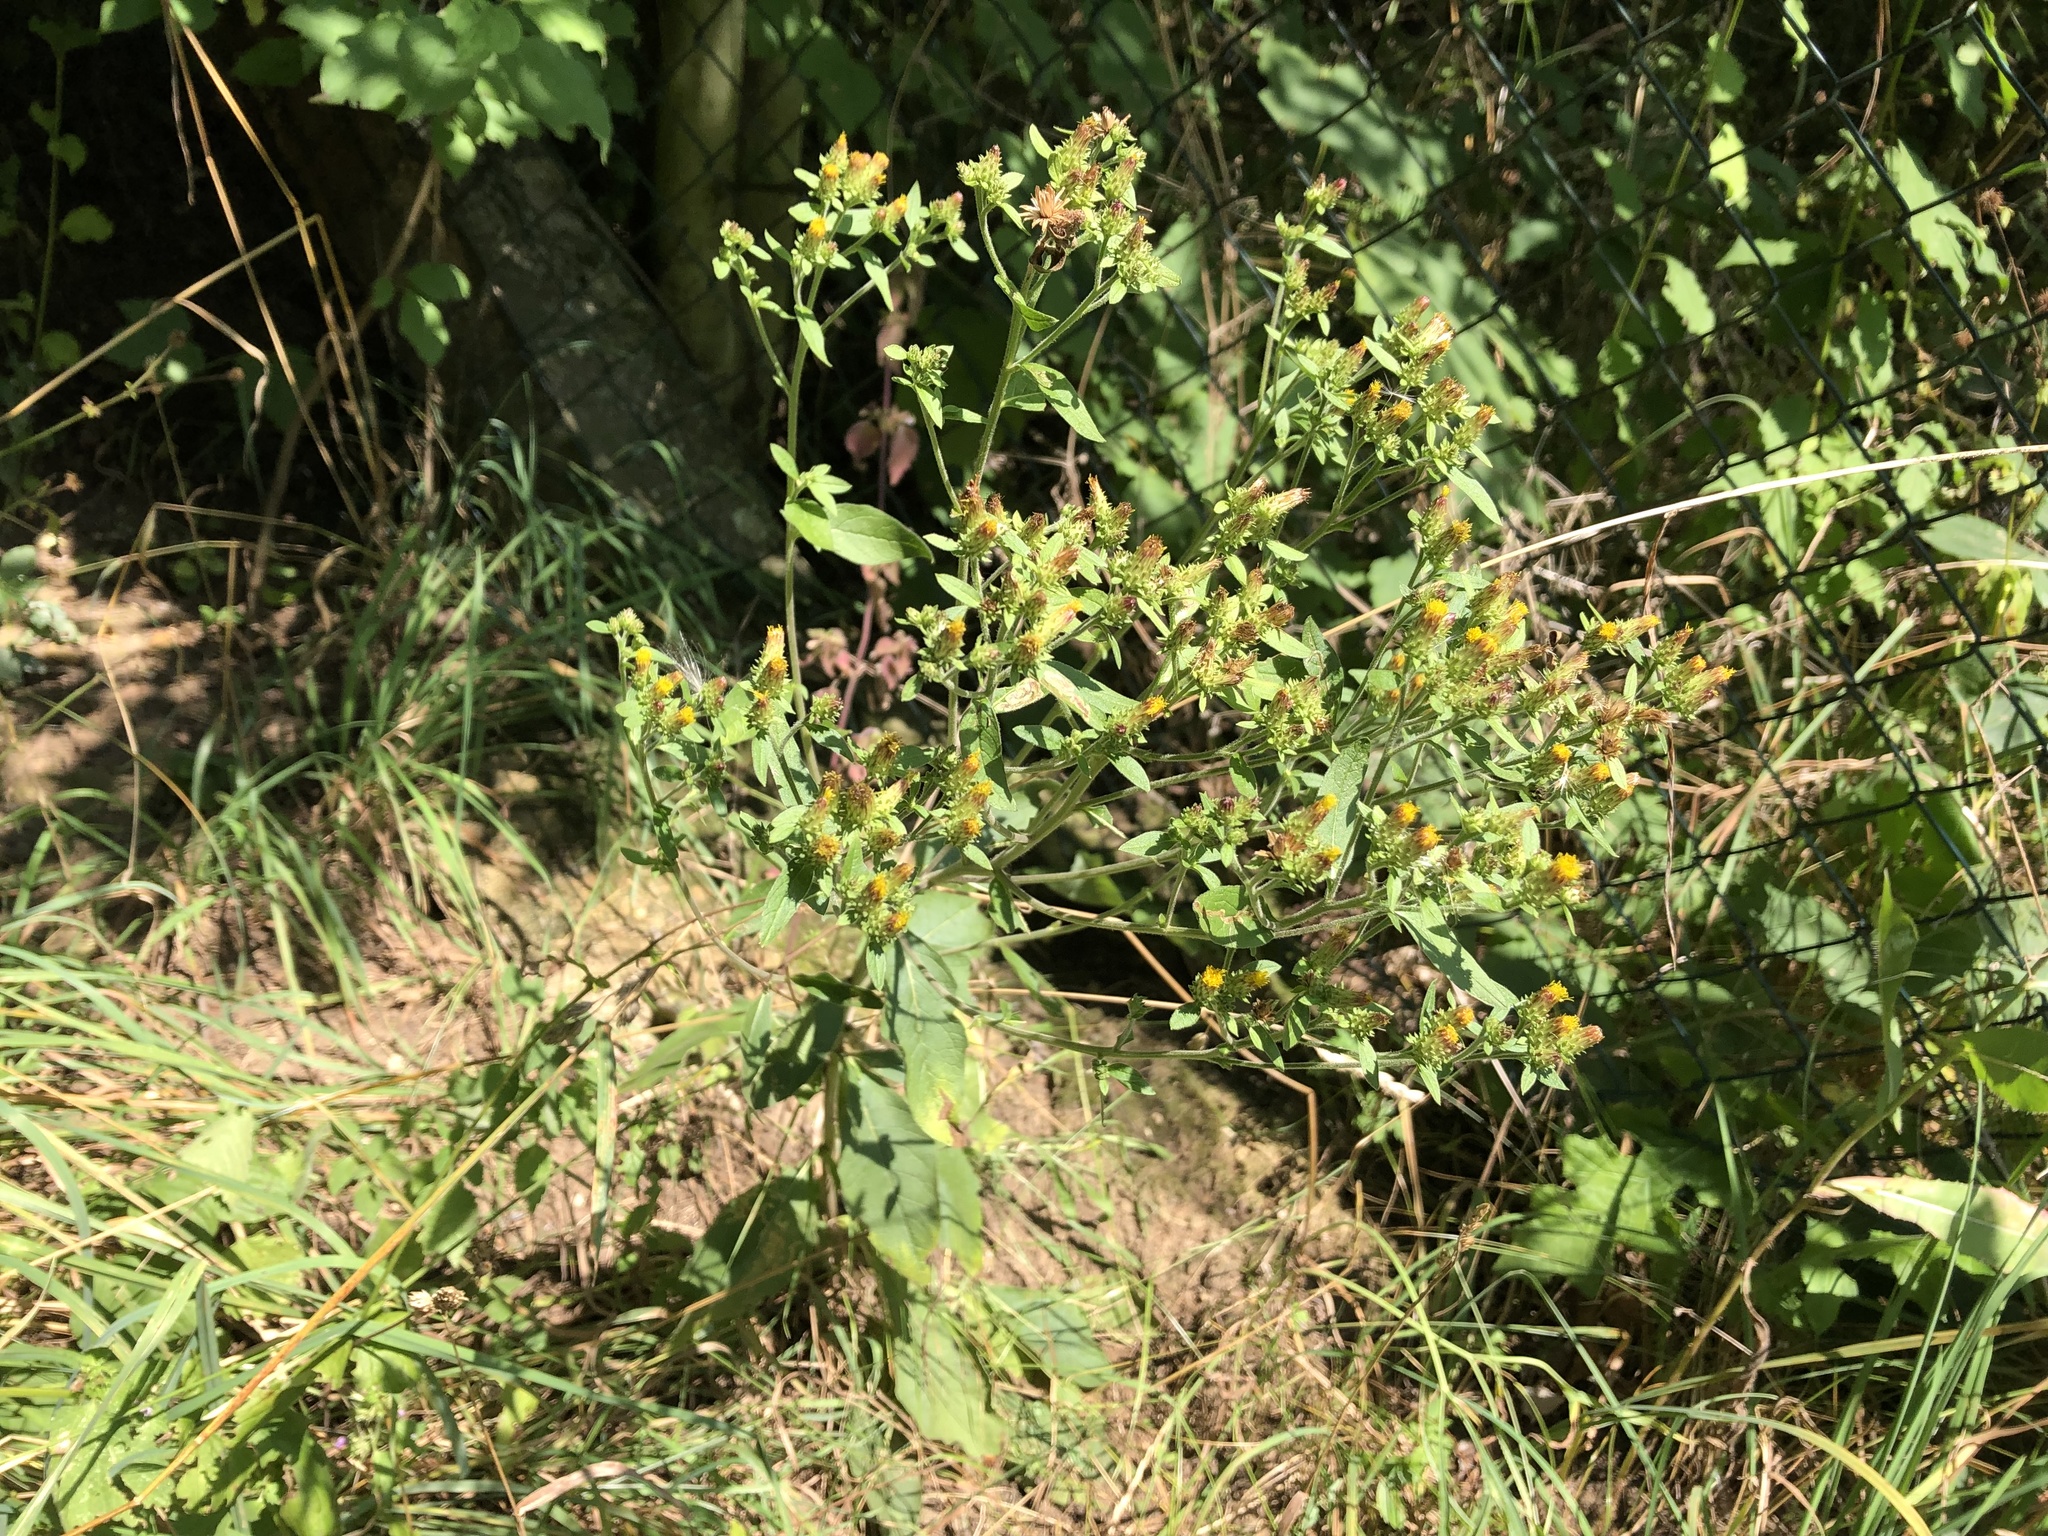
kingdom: Plantae
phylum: Tracheophyta
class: Magnoliopsida
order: Asterales
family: Asteraceae
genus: Pentanema
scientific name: Pentanema squarrosum
